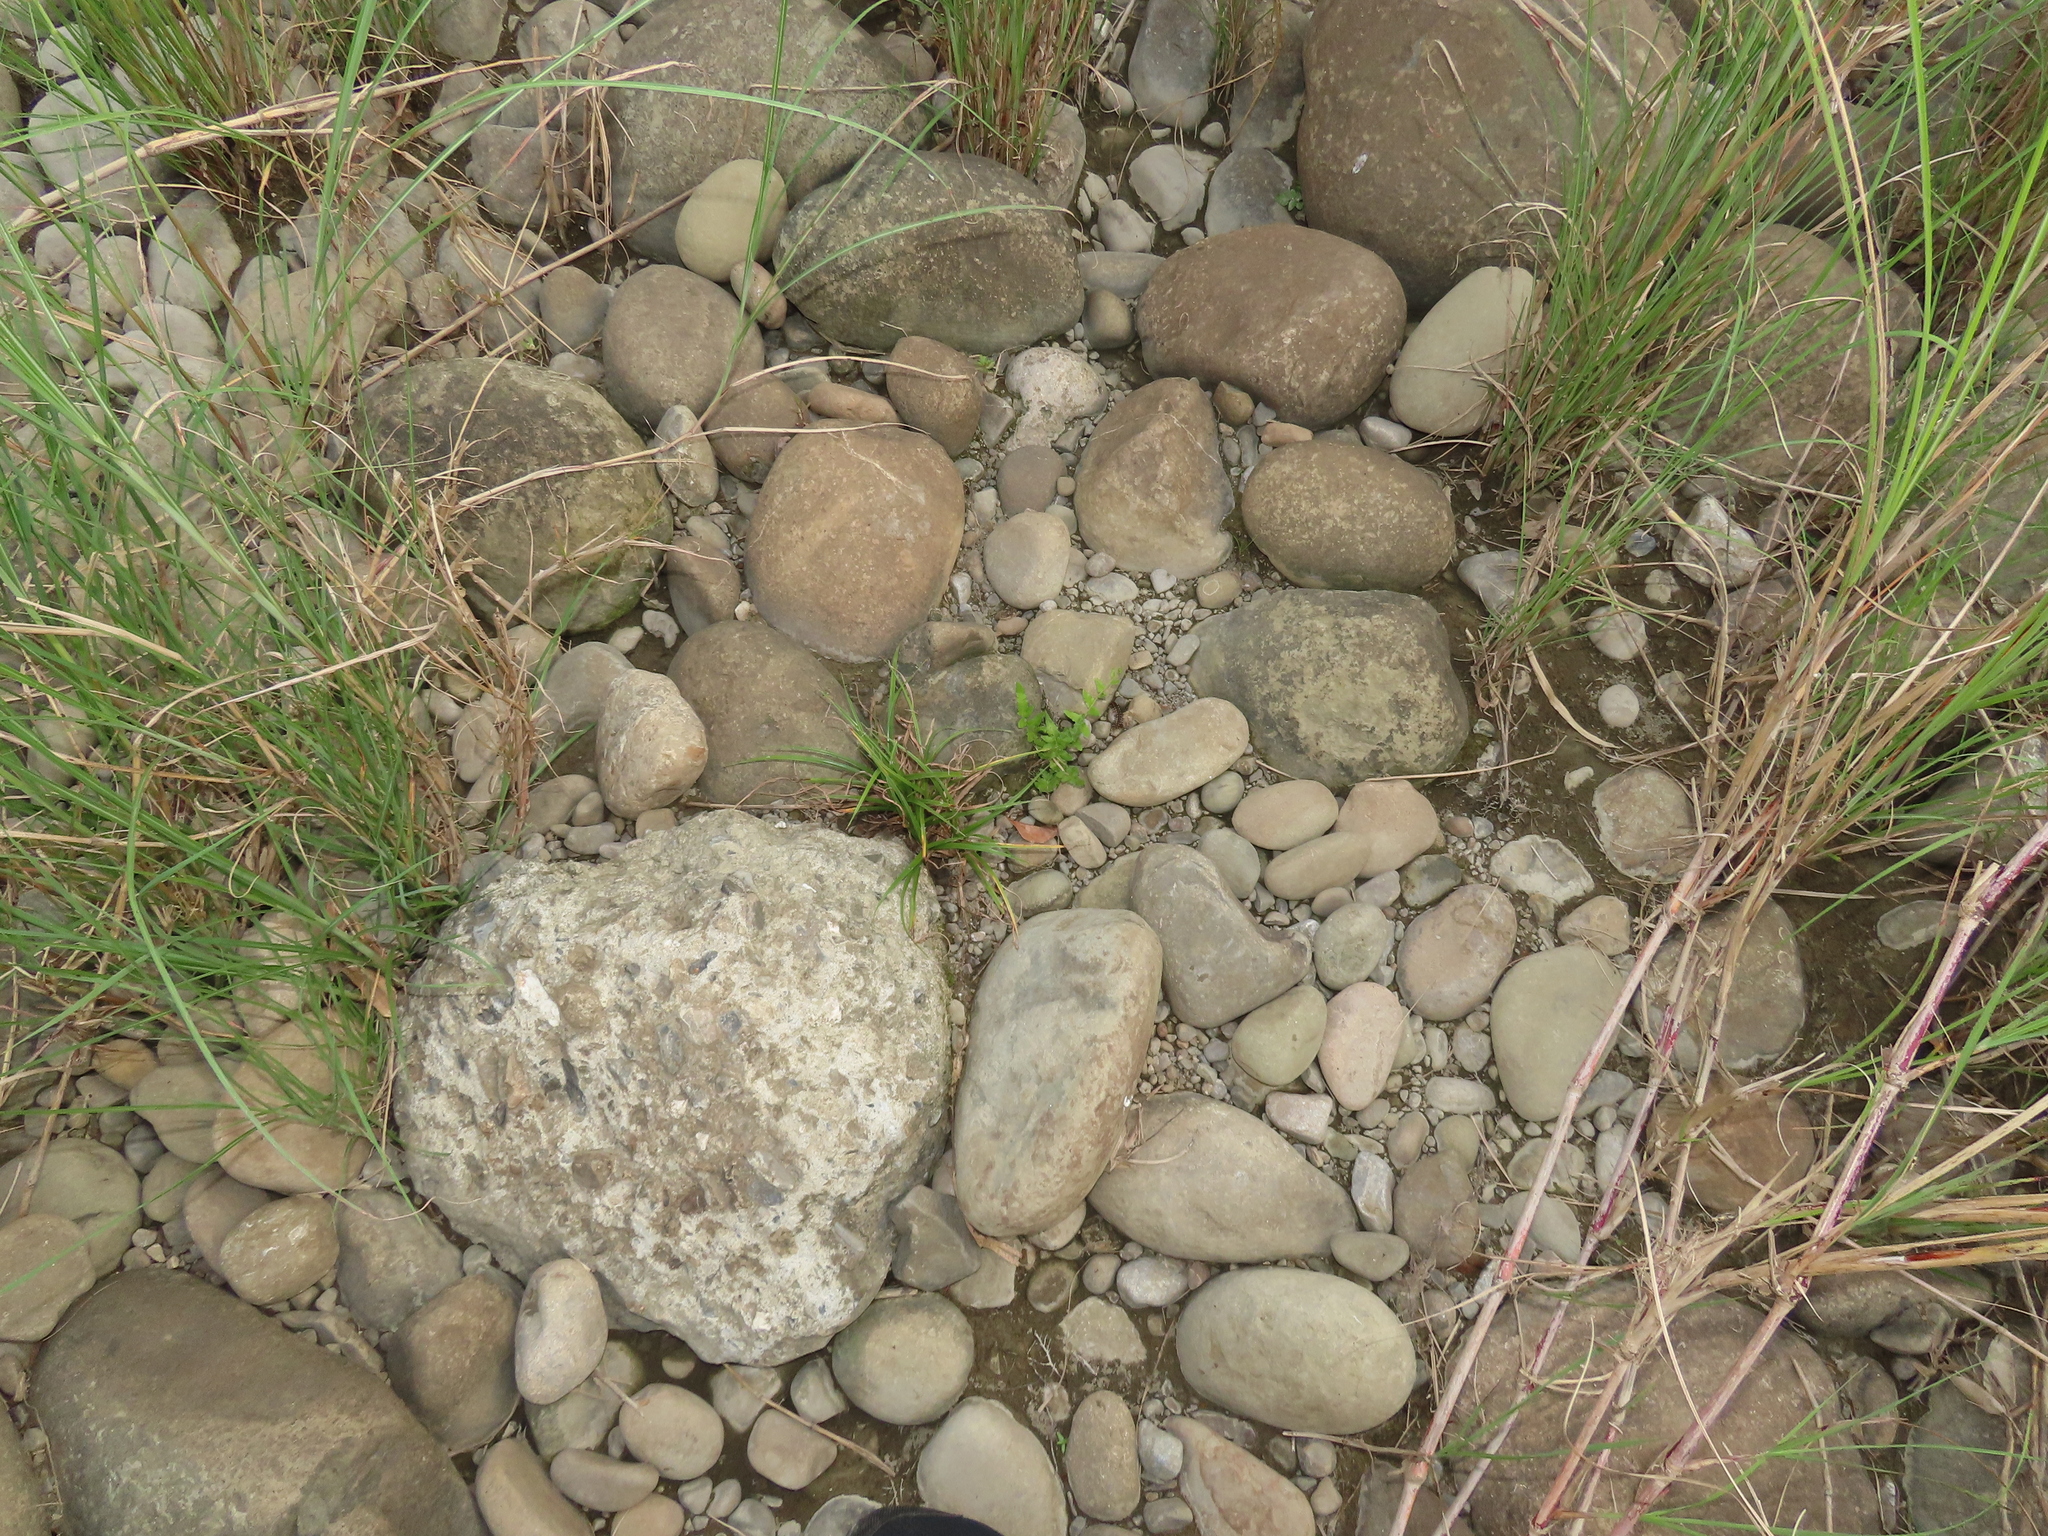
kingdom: Plantae
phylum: Tracheophyta
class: Polypodiopsida
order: Polypodiales
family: Thelypteridaceae
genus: Ampelopteris
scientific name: Ampelopteris prolifera
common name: Riverine scrambler
